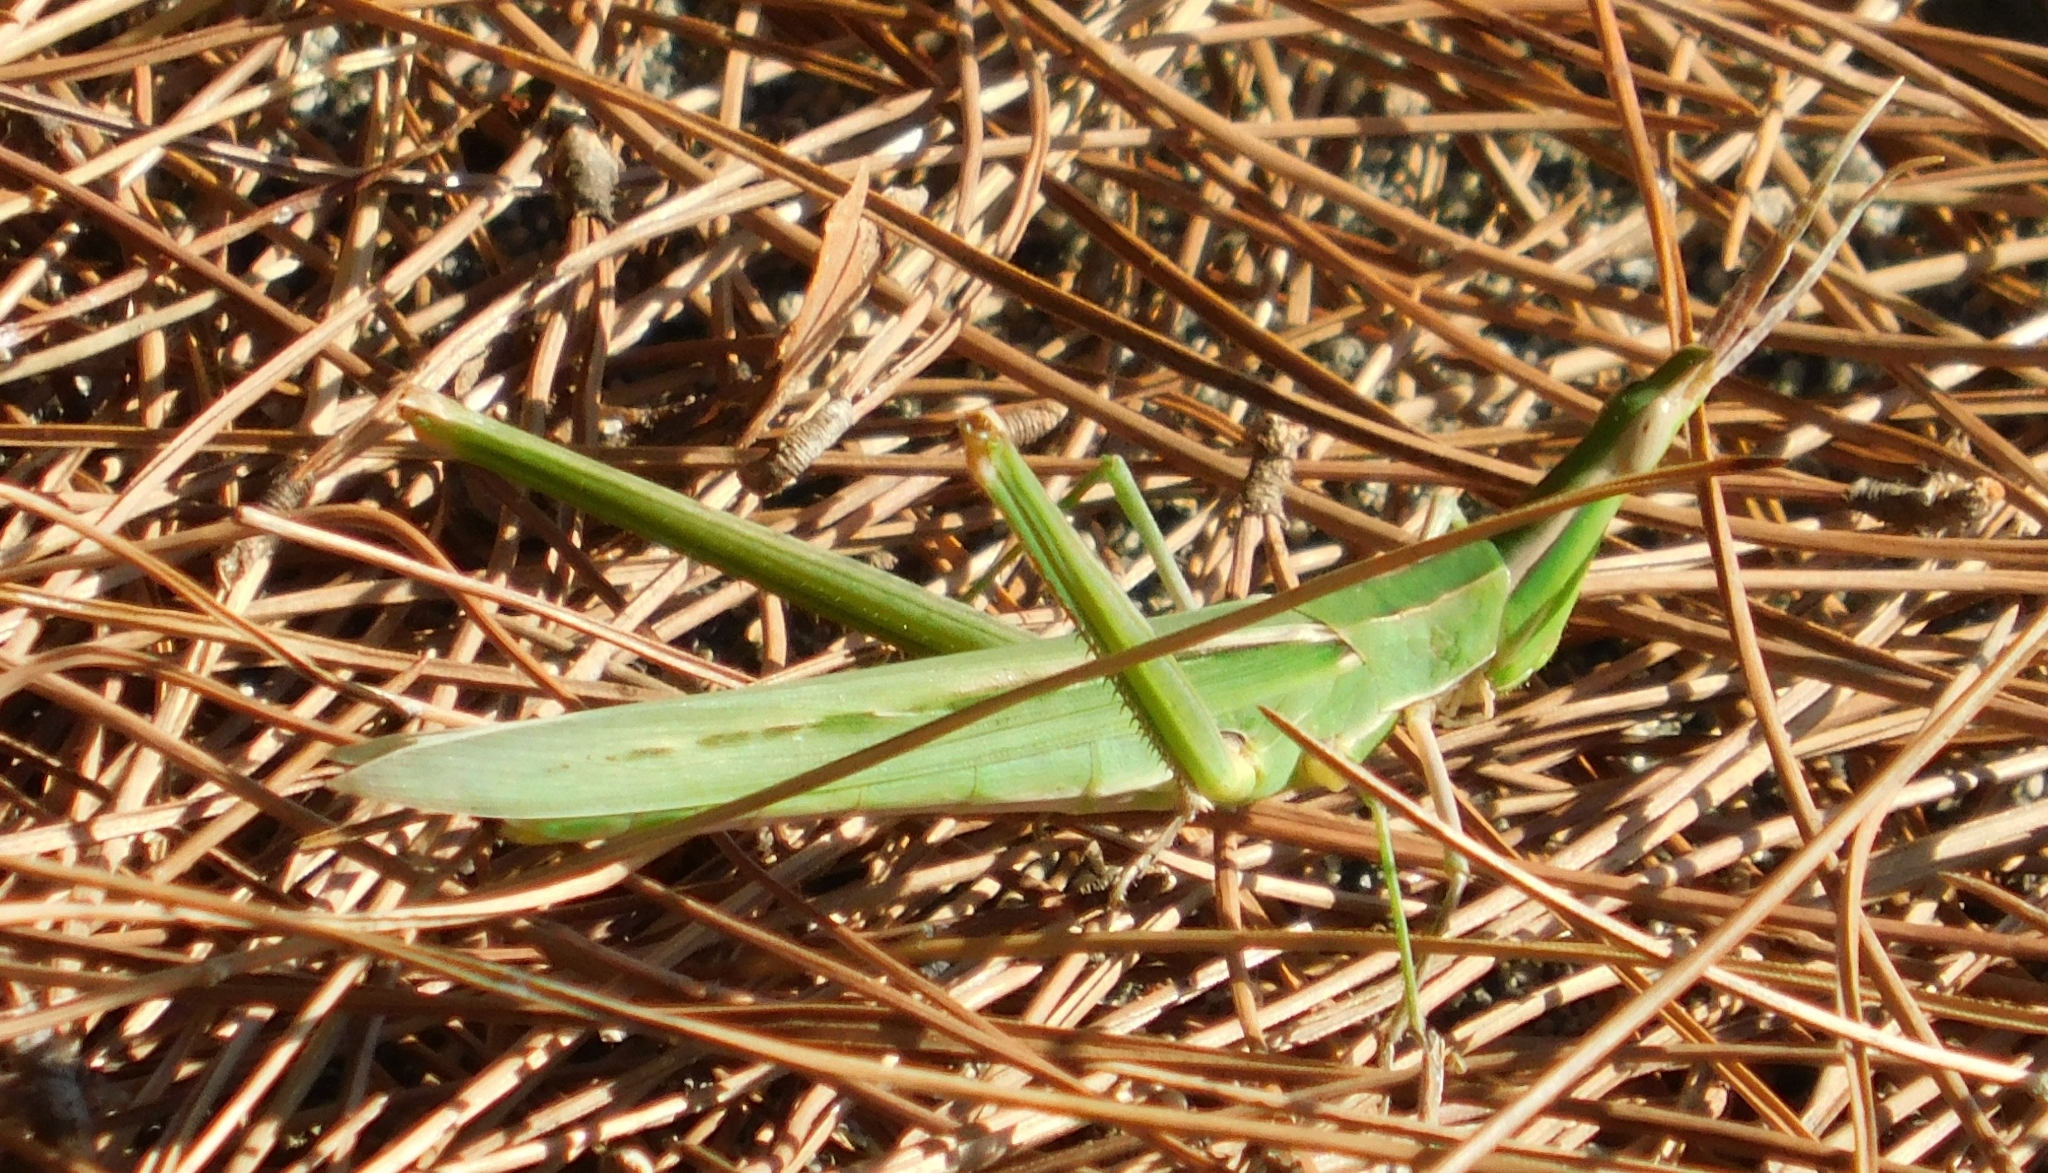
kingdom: Animalia
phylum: Arthropoda
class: Insecta
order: Orthoptera
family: Acrididae
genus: Acrida
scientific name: Acrida ungarica
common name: Common cone-headed grasshopper
